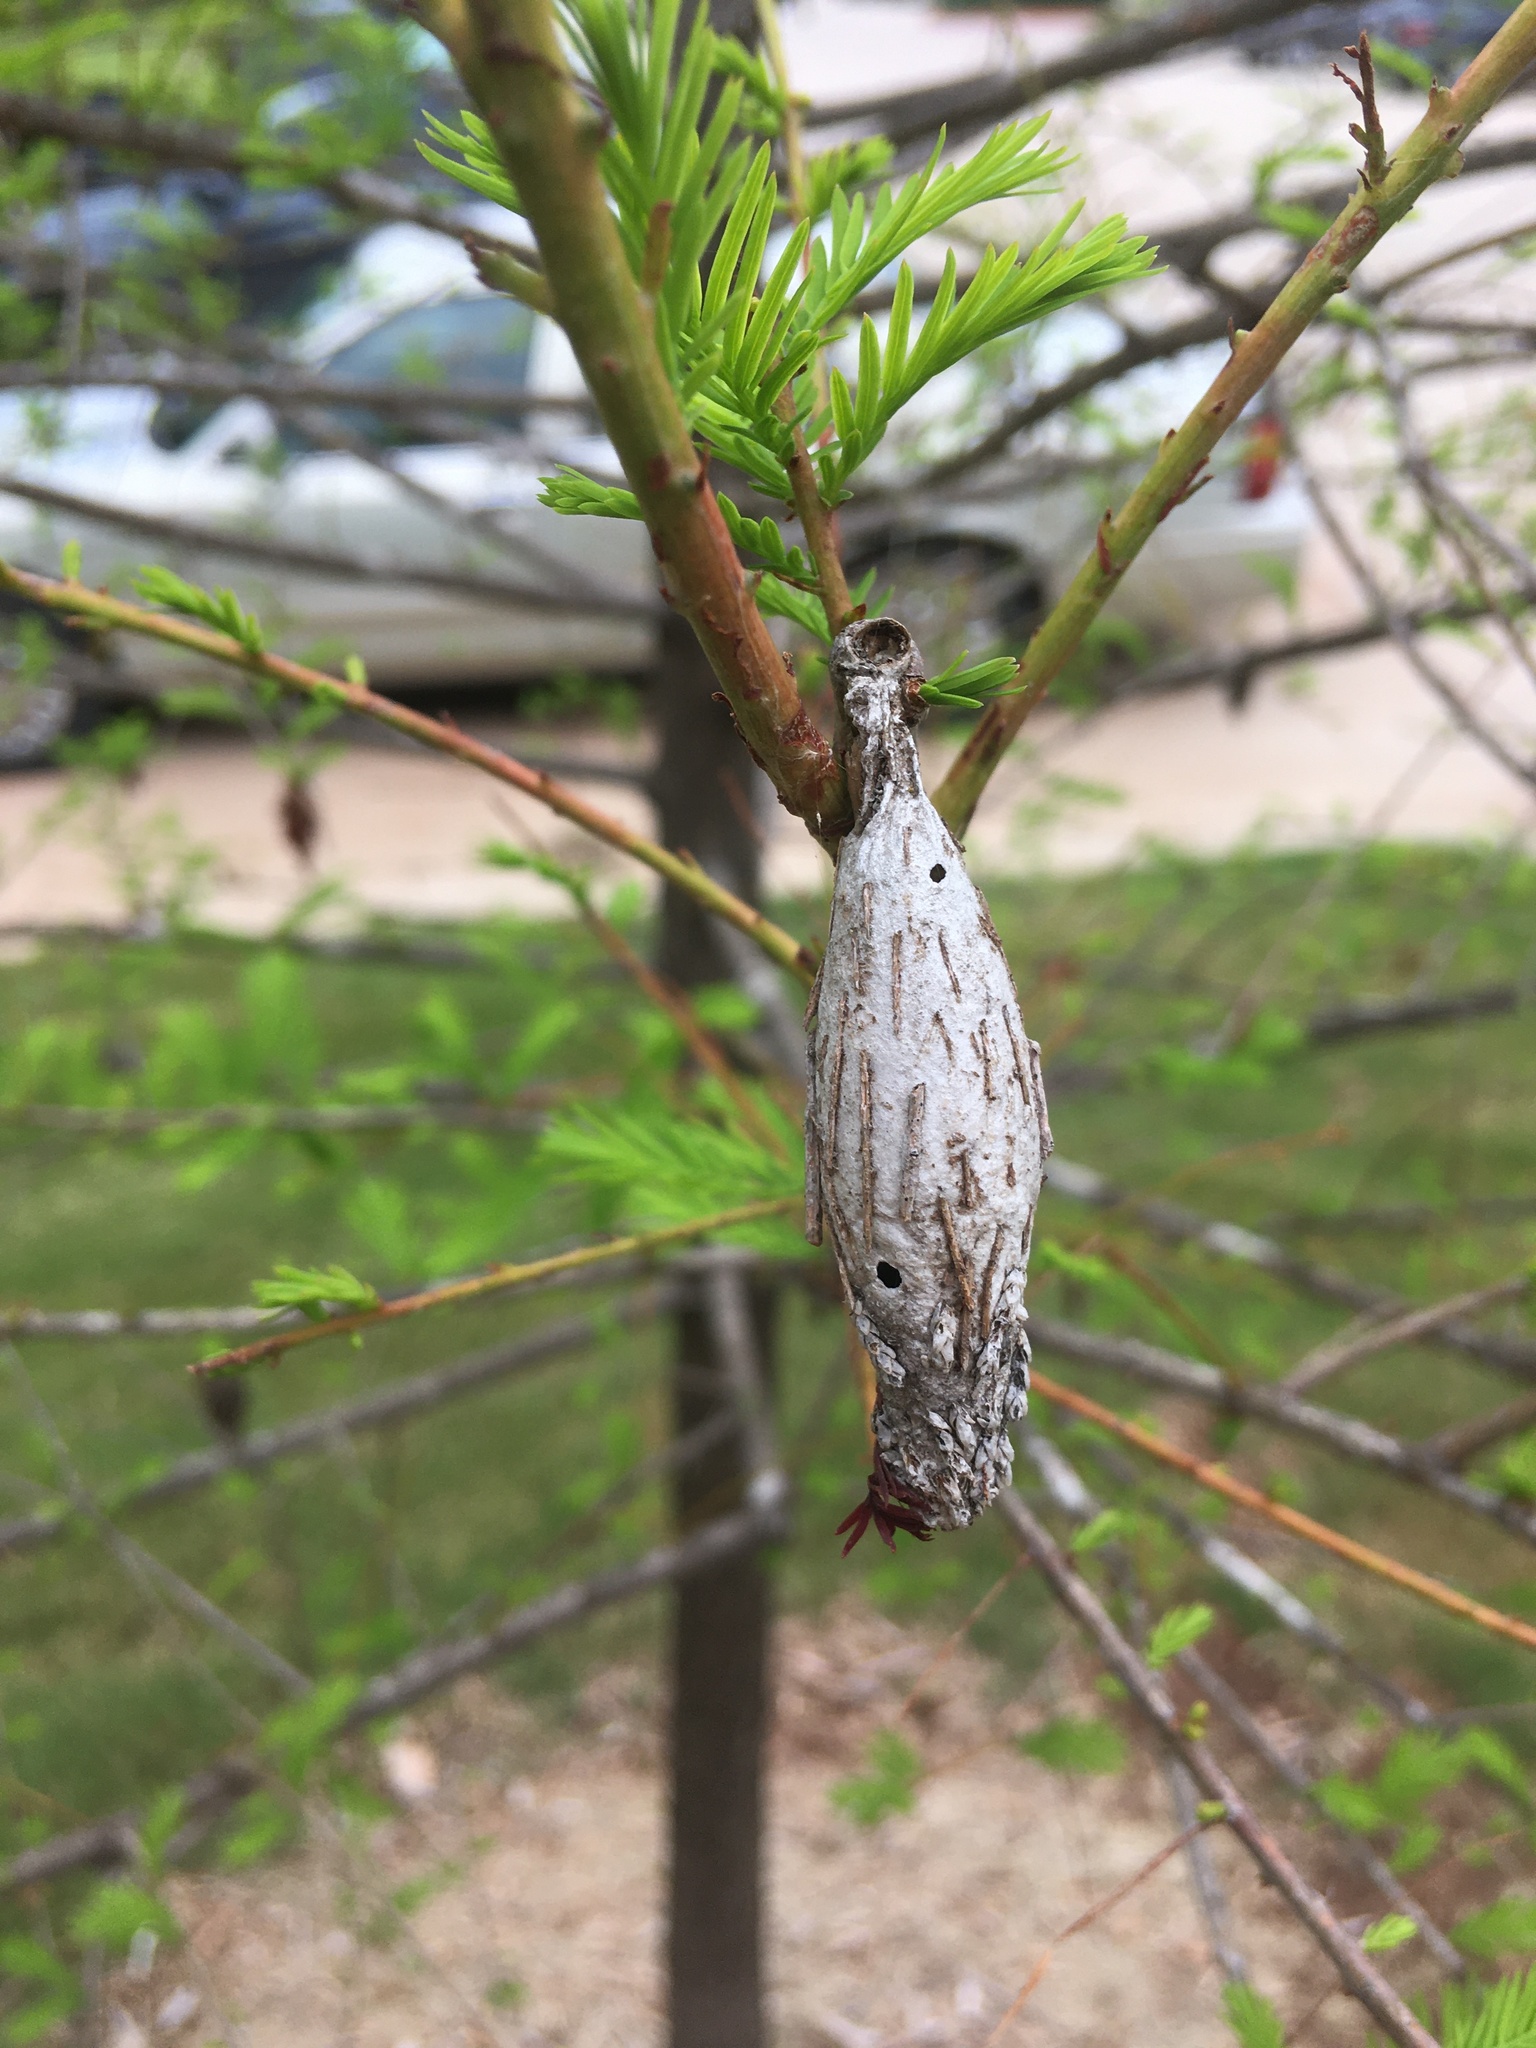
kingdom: Animalia
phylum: Arthropoda
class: Insecta
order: Lepidoptera
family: Psychidae
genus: Thyridopteryx
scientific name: Thyridopteryx ephemeraeformis
